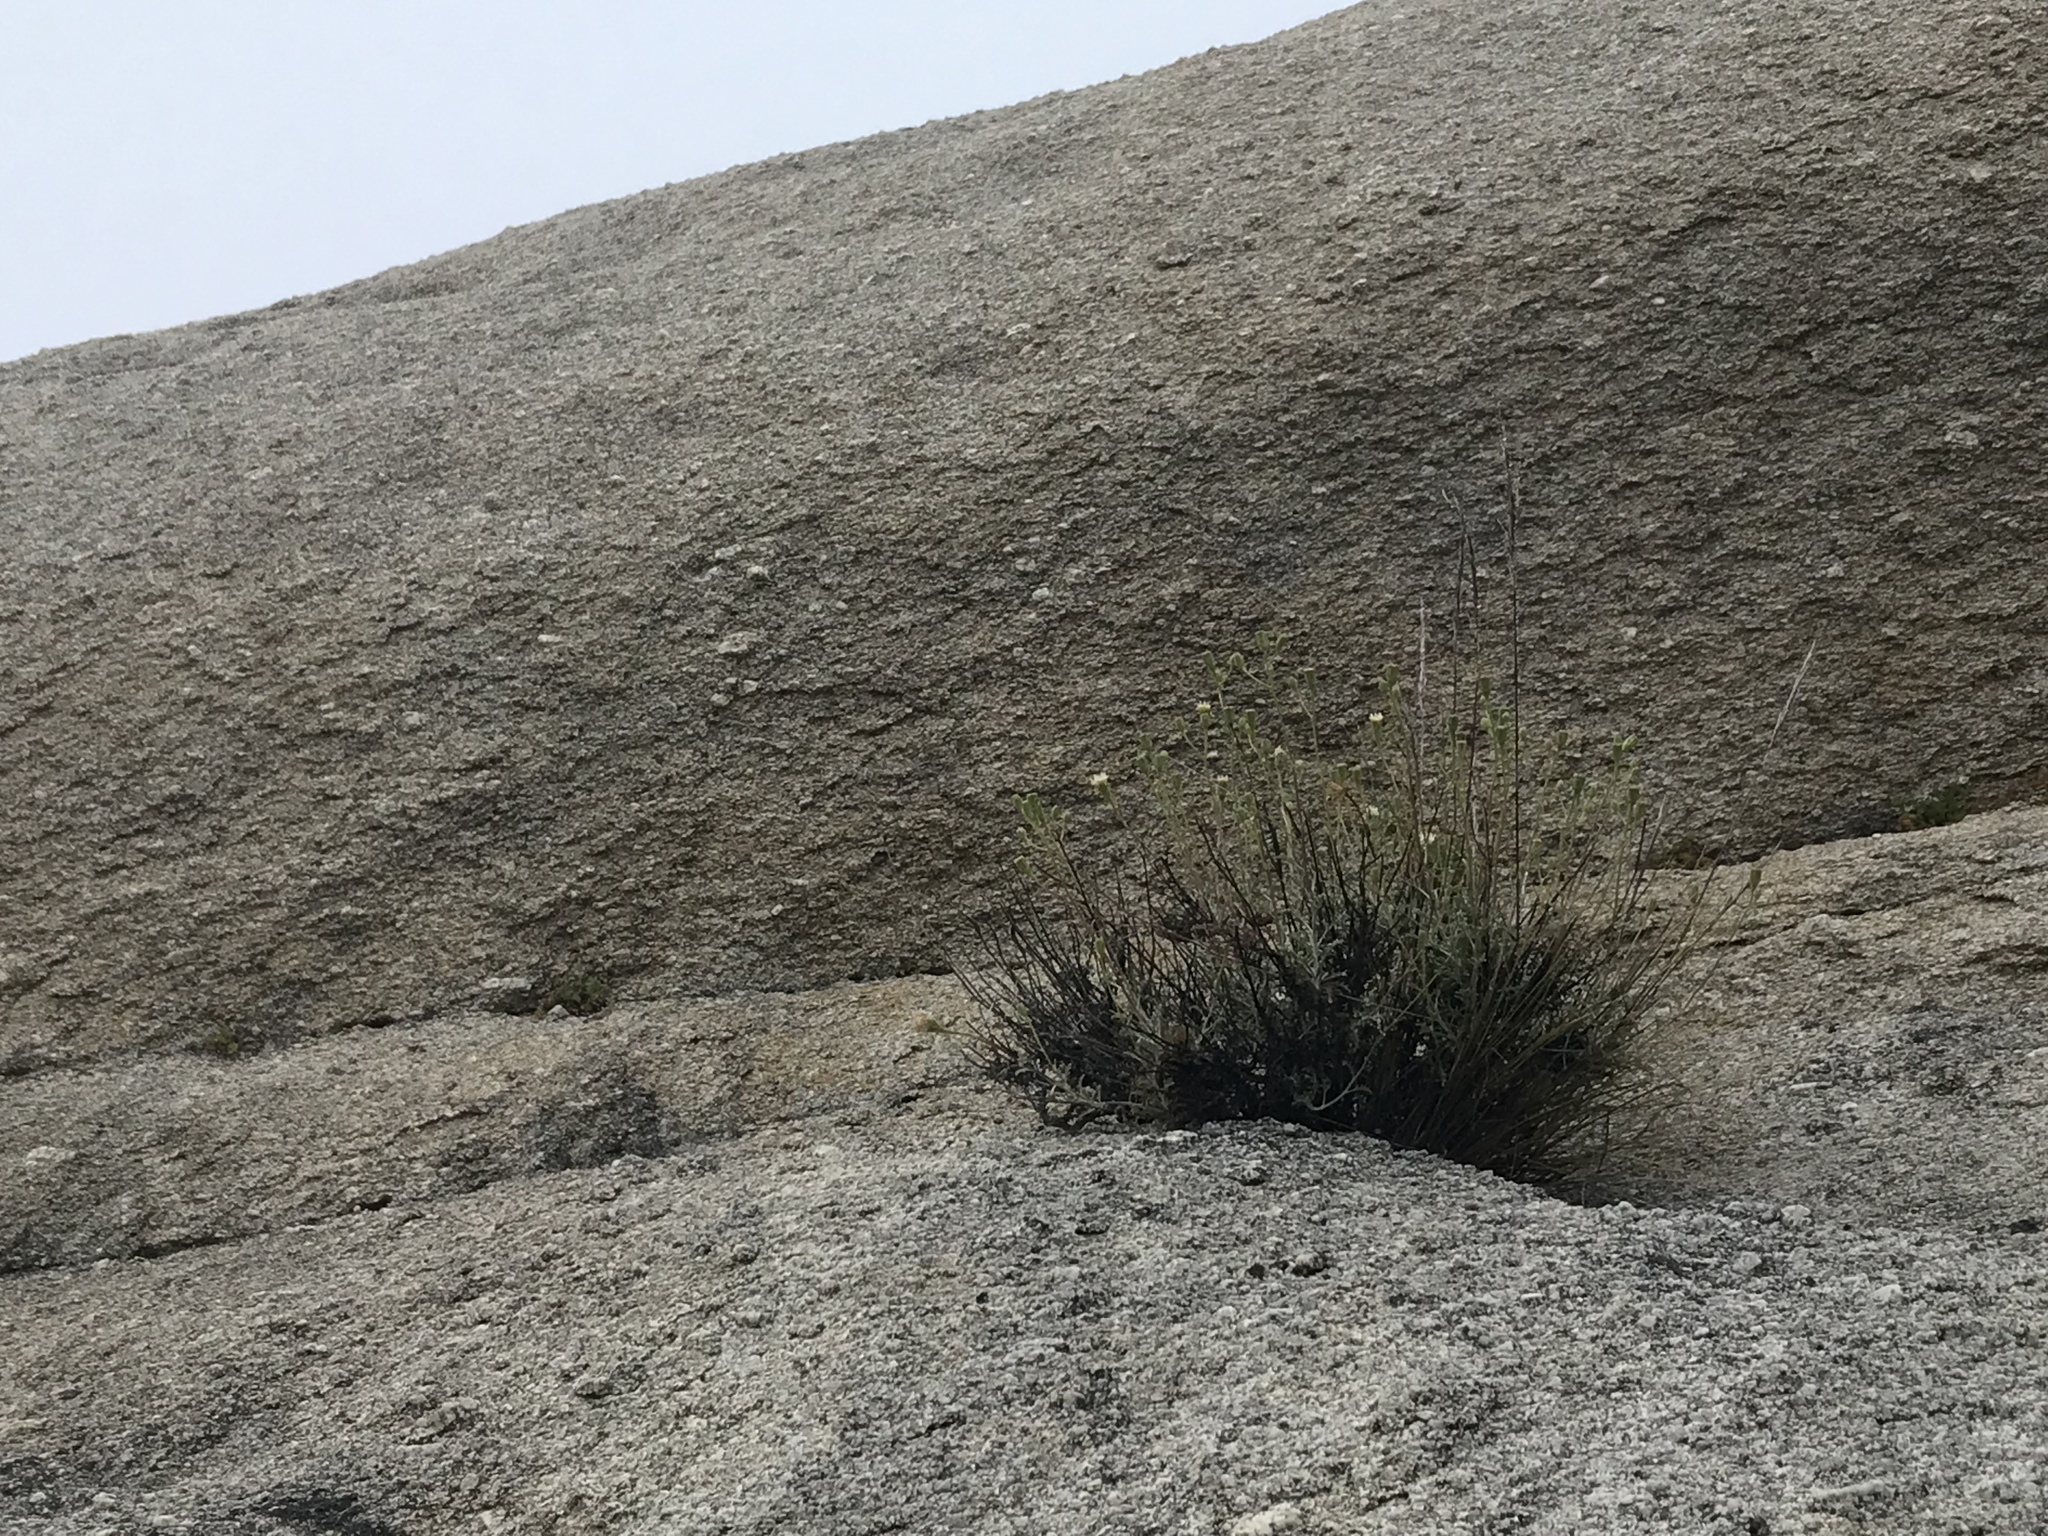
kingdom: Plantae
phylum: Tracheophyta
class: Magnoliopsida
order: Asterales
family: Asteraceae
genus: Chaenactis
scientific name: Chaenactis parishii
